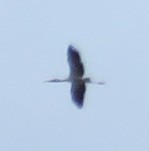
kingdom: Animalia
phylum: Chordata
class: Aves
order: Ciconiiformes
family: Ciconiidae
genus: Mycteria
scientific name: Mycteria americana
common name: Wood stork
